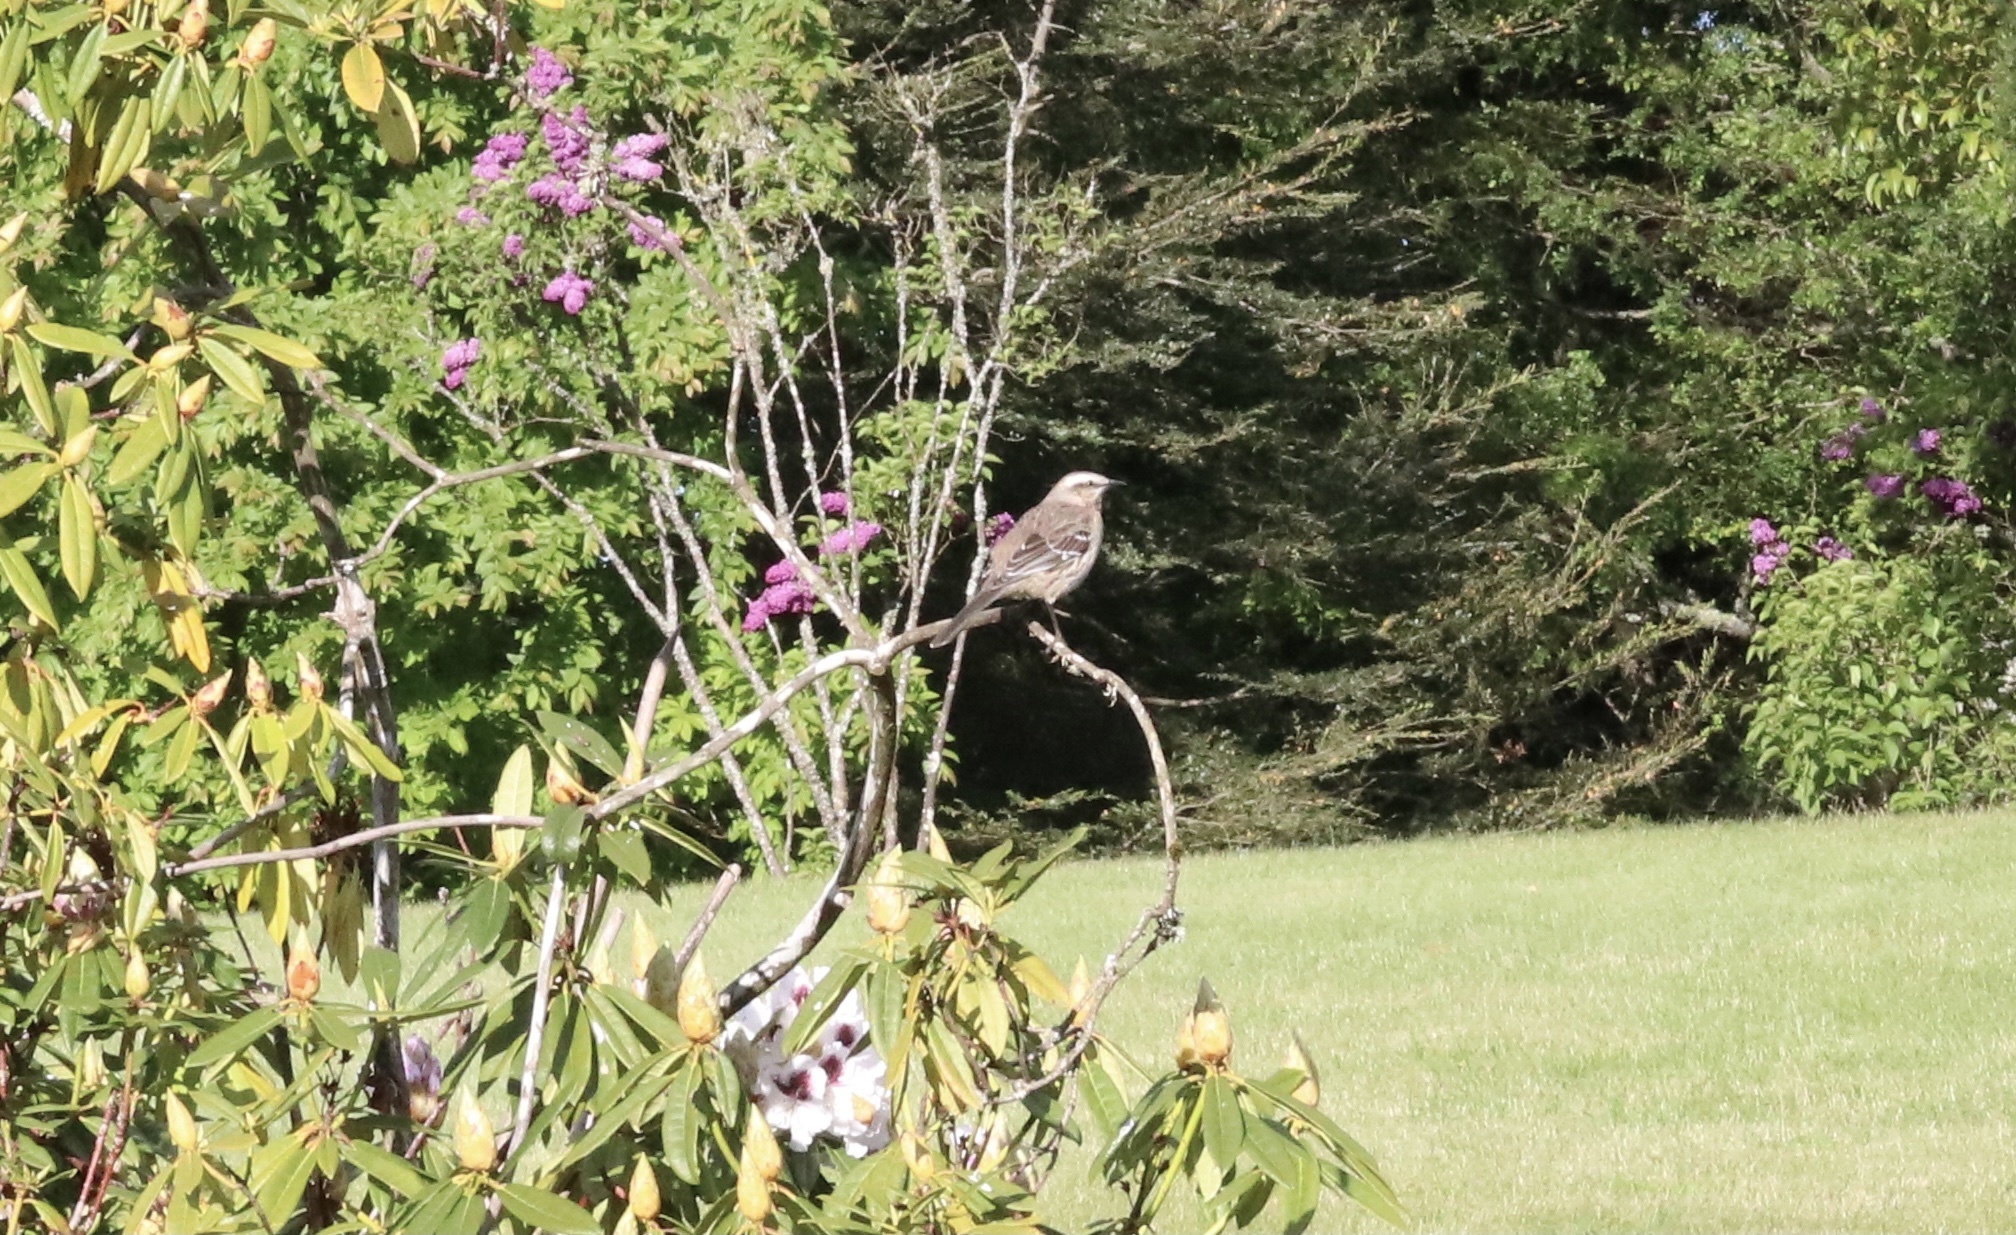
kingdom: Animalia
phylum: Chordata
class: Aves
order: Passeriformes
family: Mimidae
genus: Mimus
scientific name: Mimus thenca
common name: Chilean mockingbird
